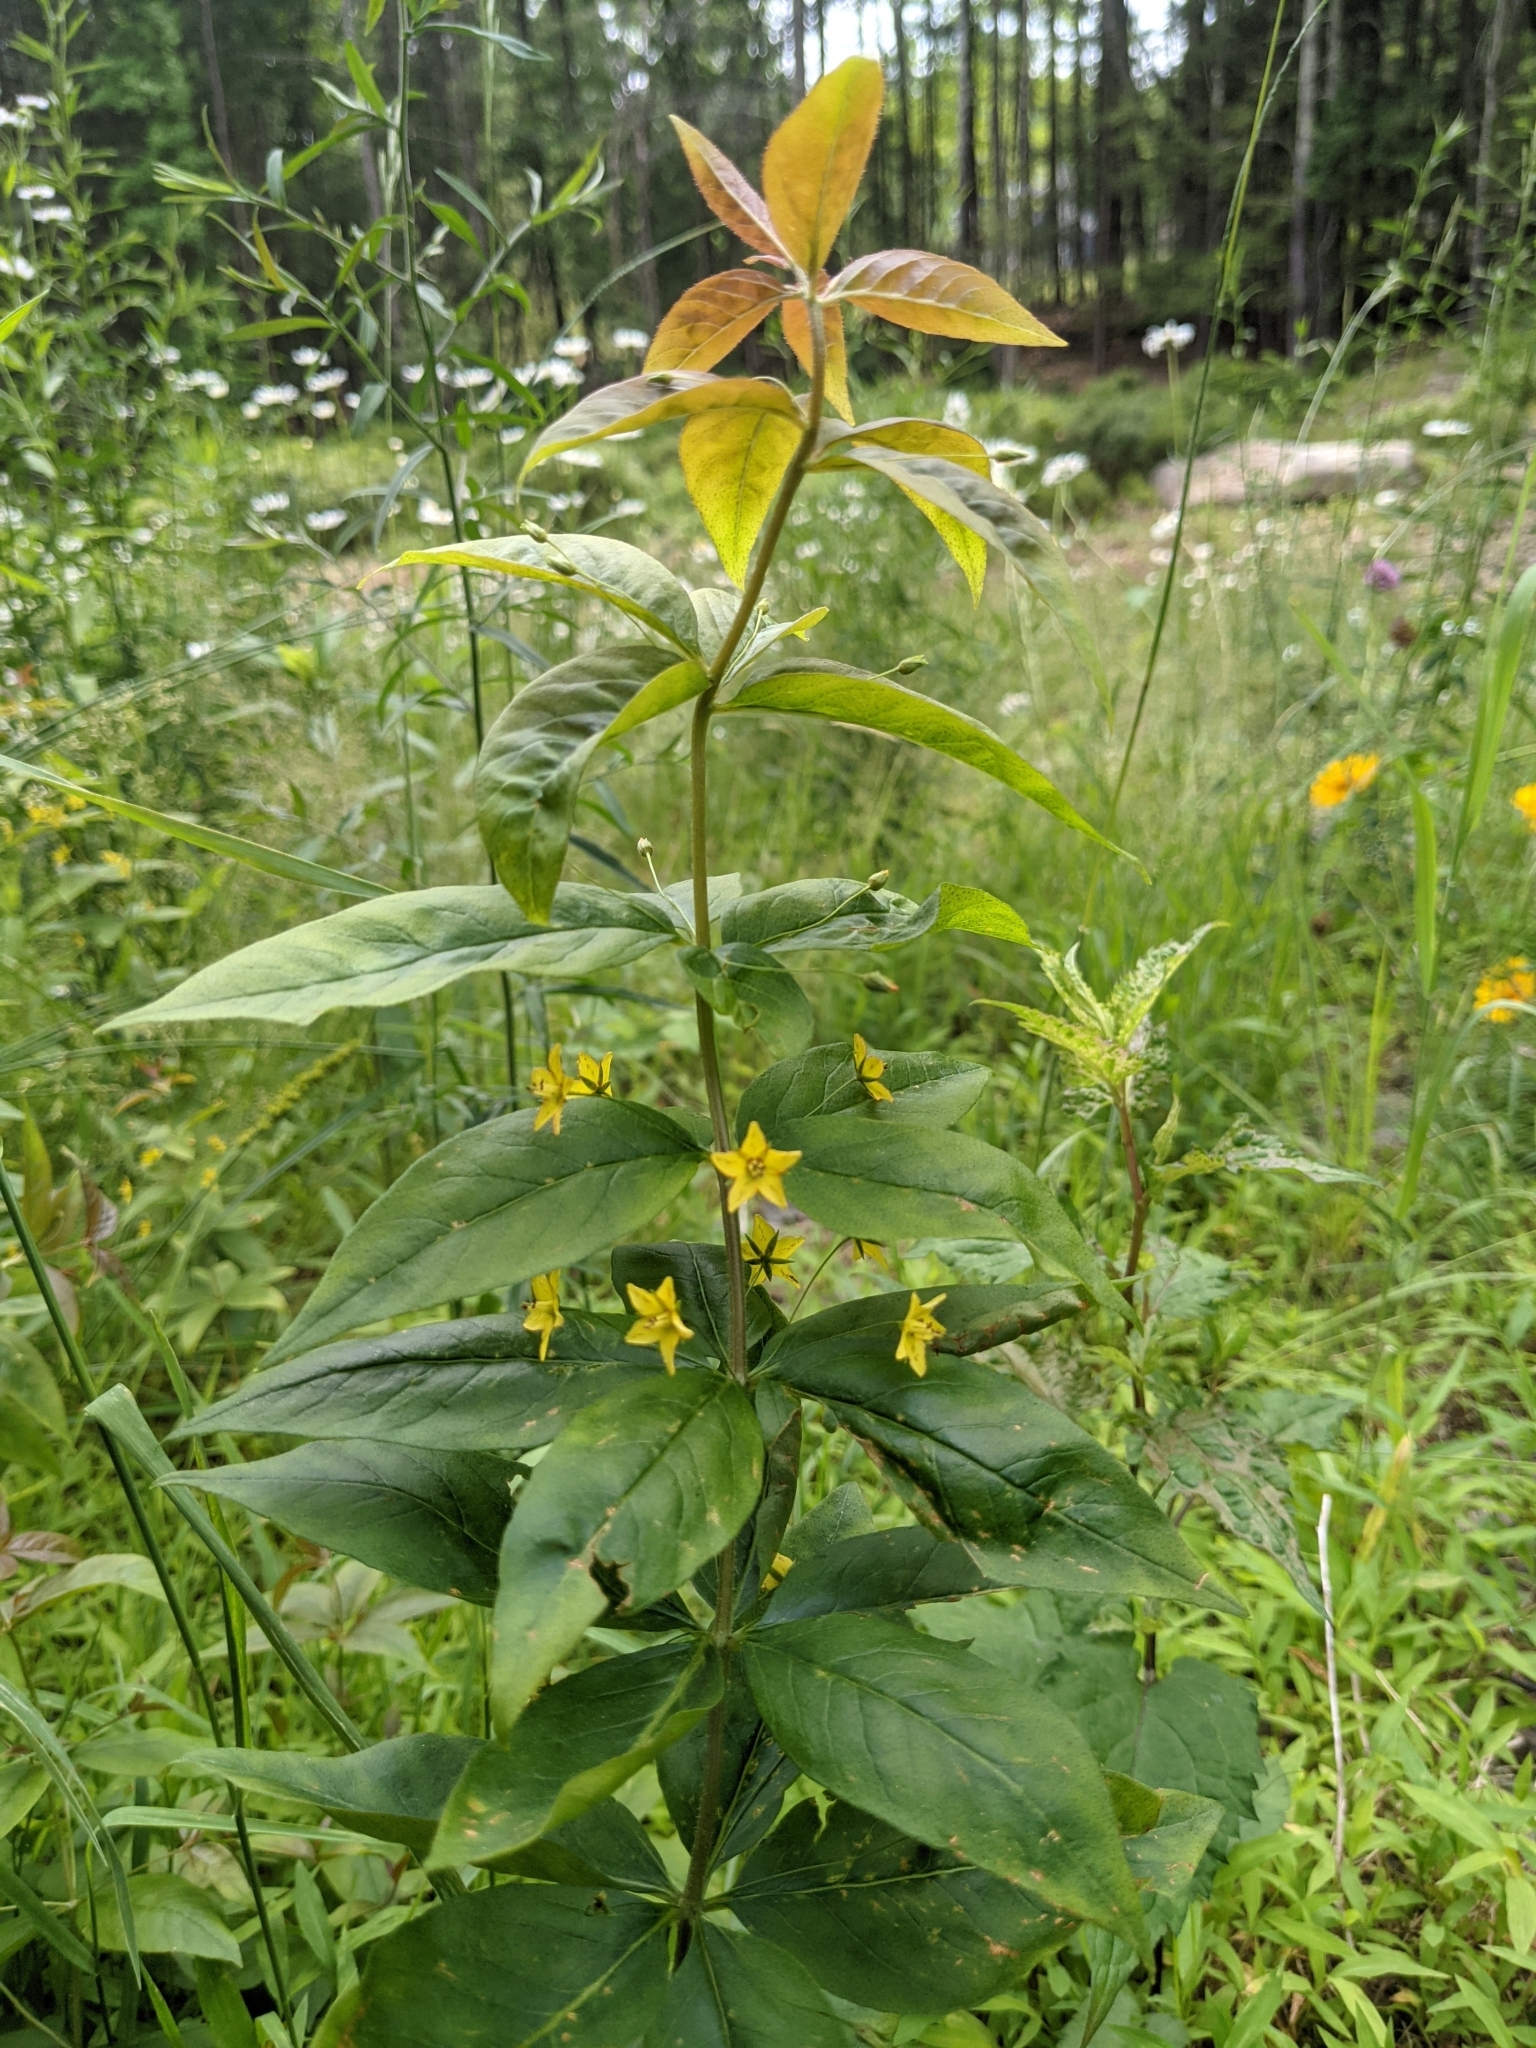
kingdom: Plantae
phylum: Tracheophyta
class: Magnoliopsida
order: Ericales
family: Primulaceae
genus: Lysimachia
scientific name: Lysimachia quadrifolia
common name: Whorled loosestrife
